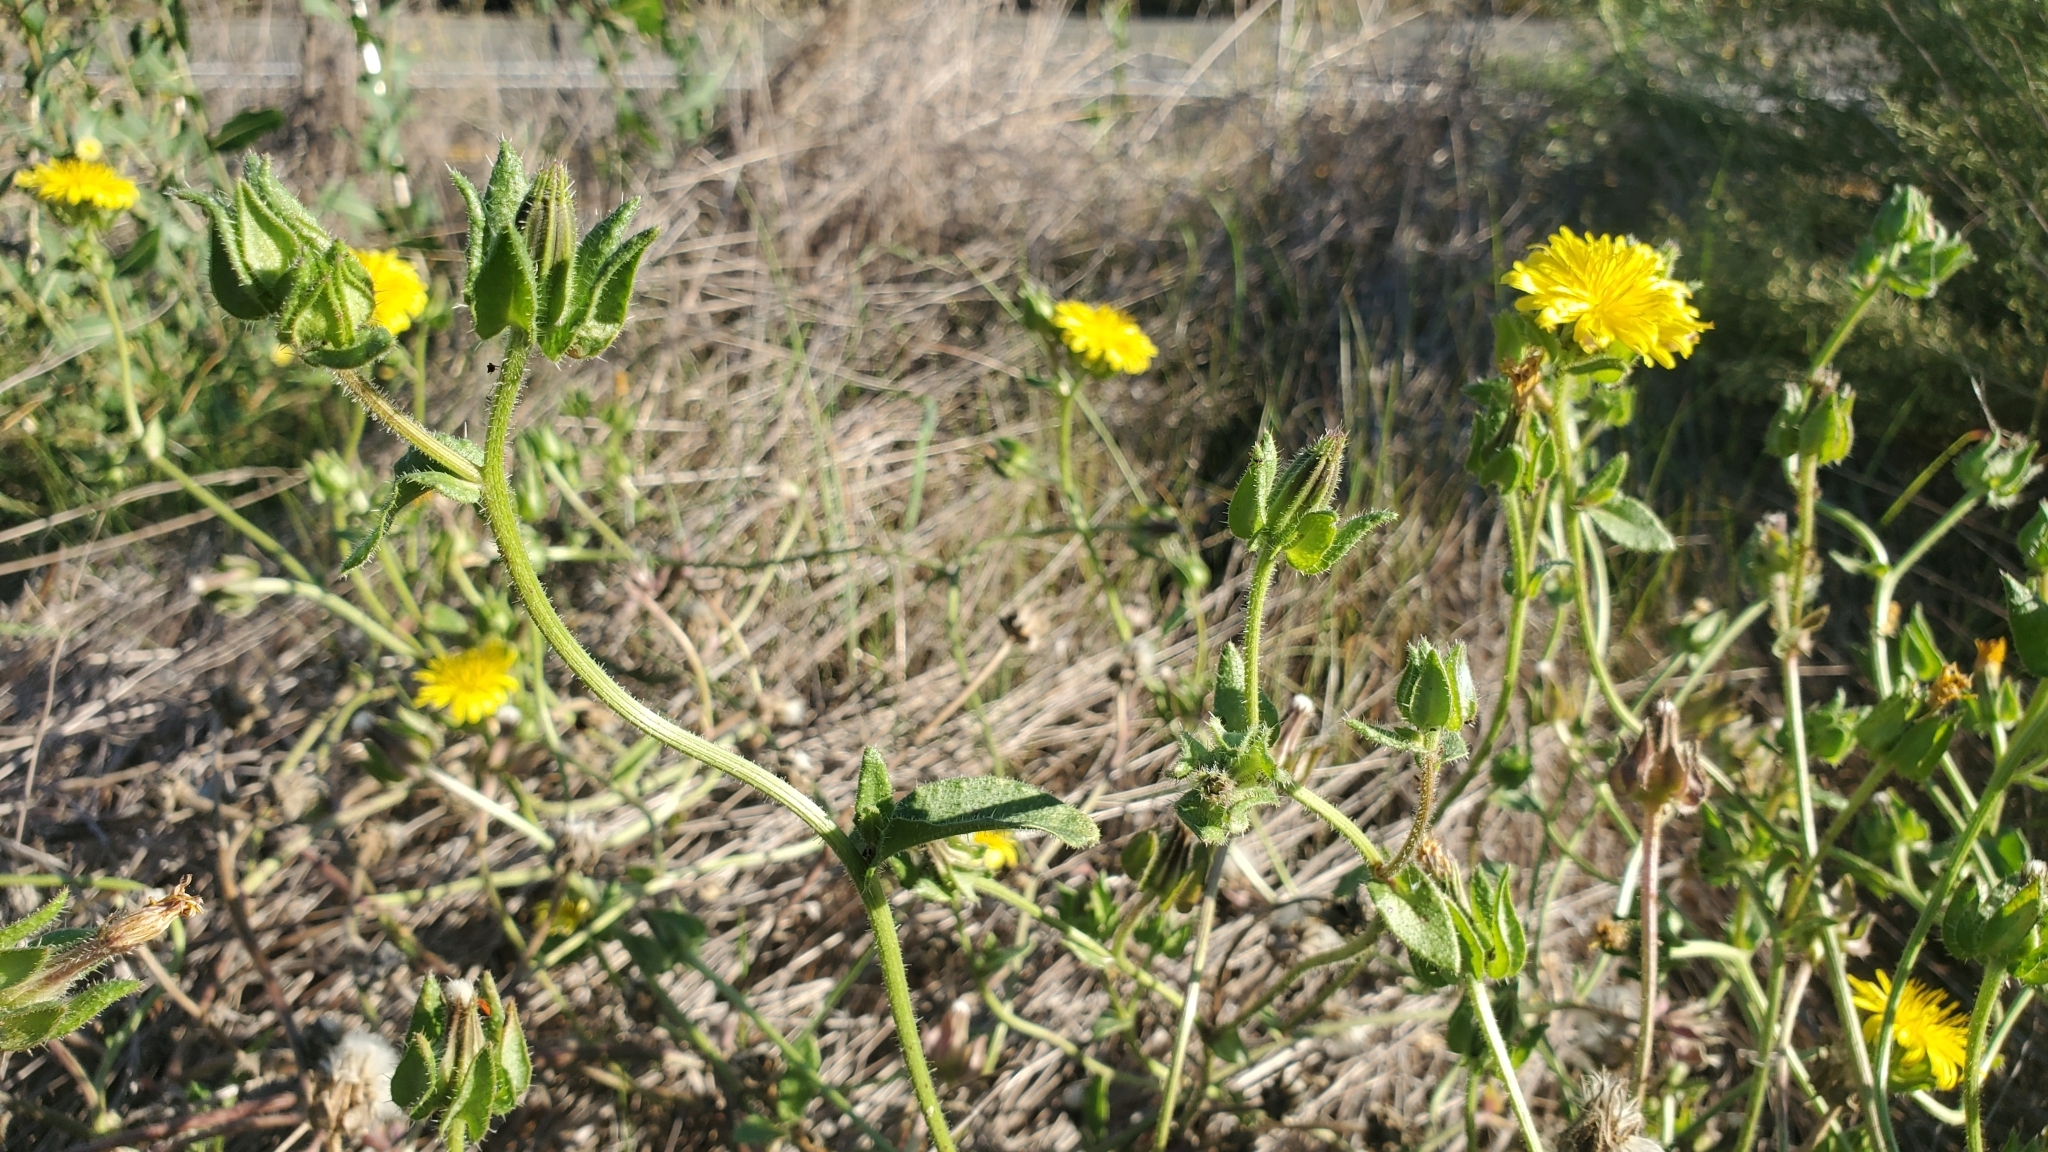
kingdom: Plantae
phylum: Tracheophyta
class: Magnoliopsida
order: Asterales
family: Asteraceae
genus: Helminthotheca
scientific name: Helminthotheca echioides
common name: Ox-tongue
